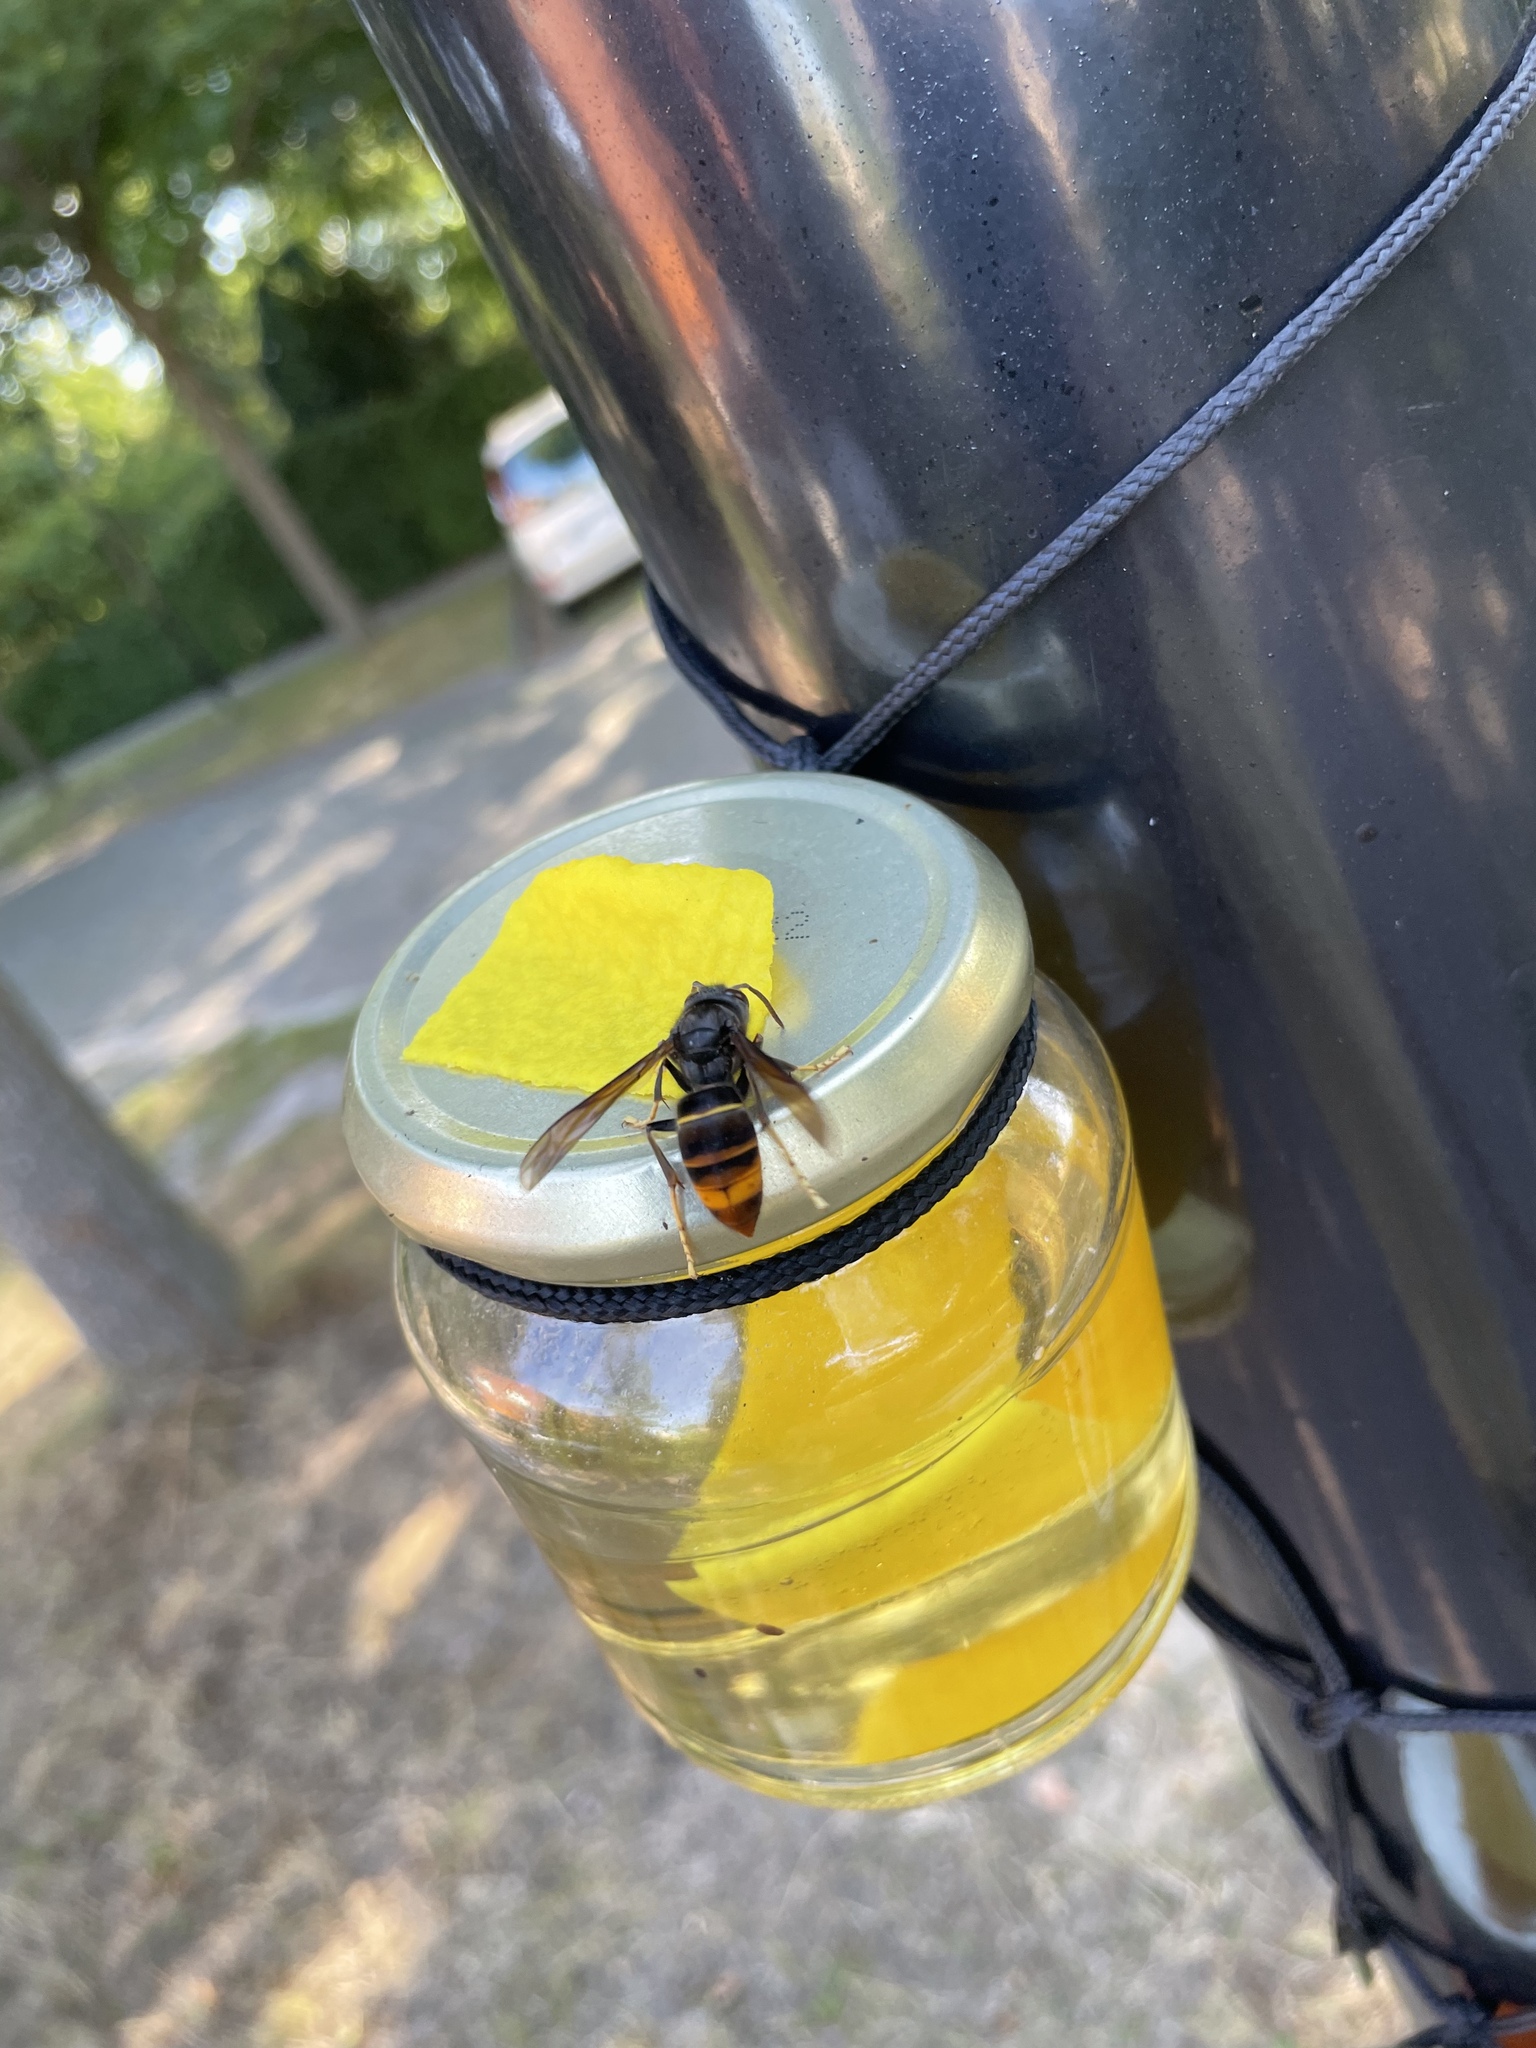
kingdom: Animalia
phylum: Arthropoda
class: Insecta
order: Hymenoptera
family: Vespidae
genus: Vespa
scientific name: Vespa velutina
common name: Asian hornet
